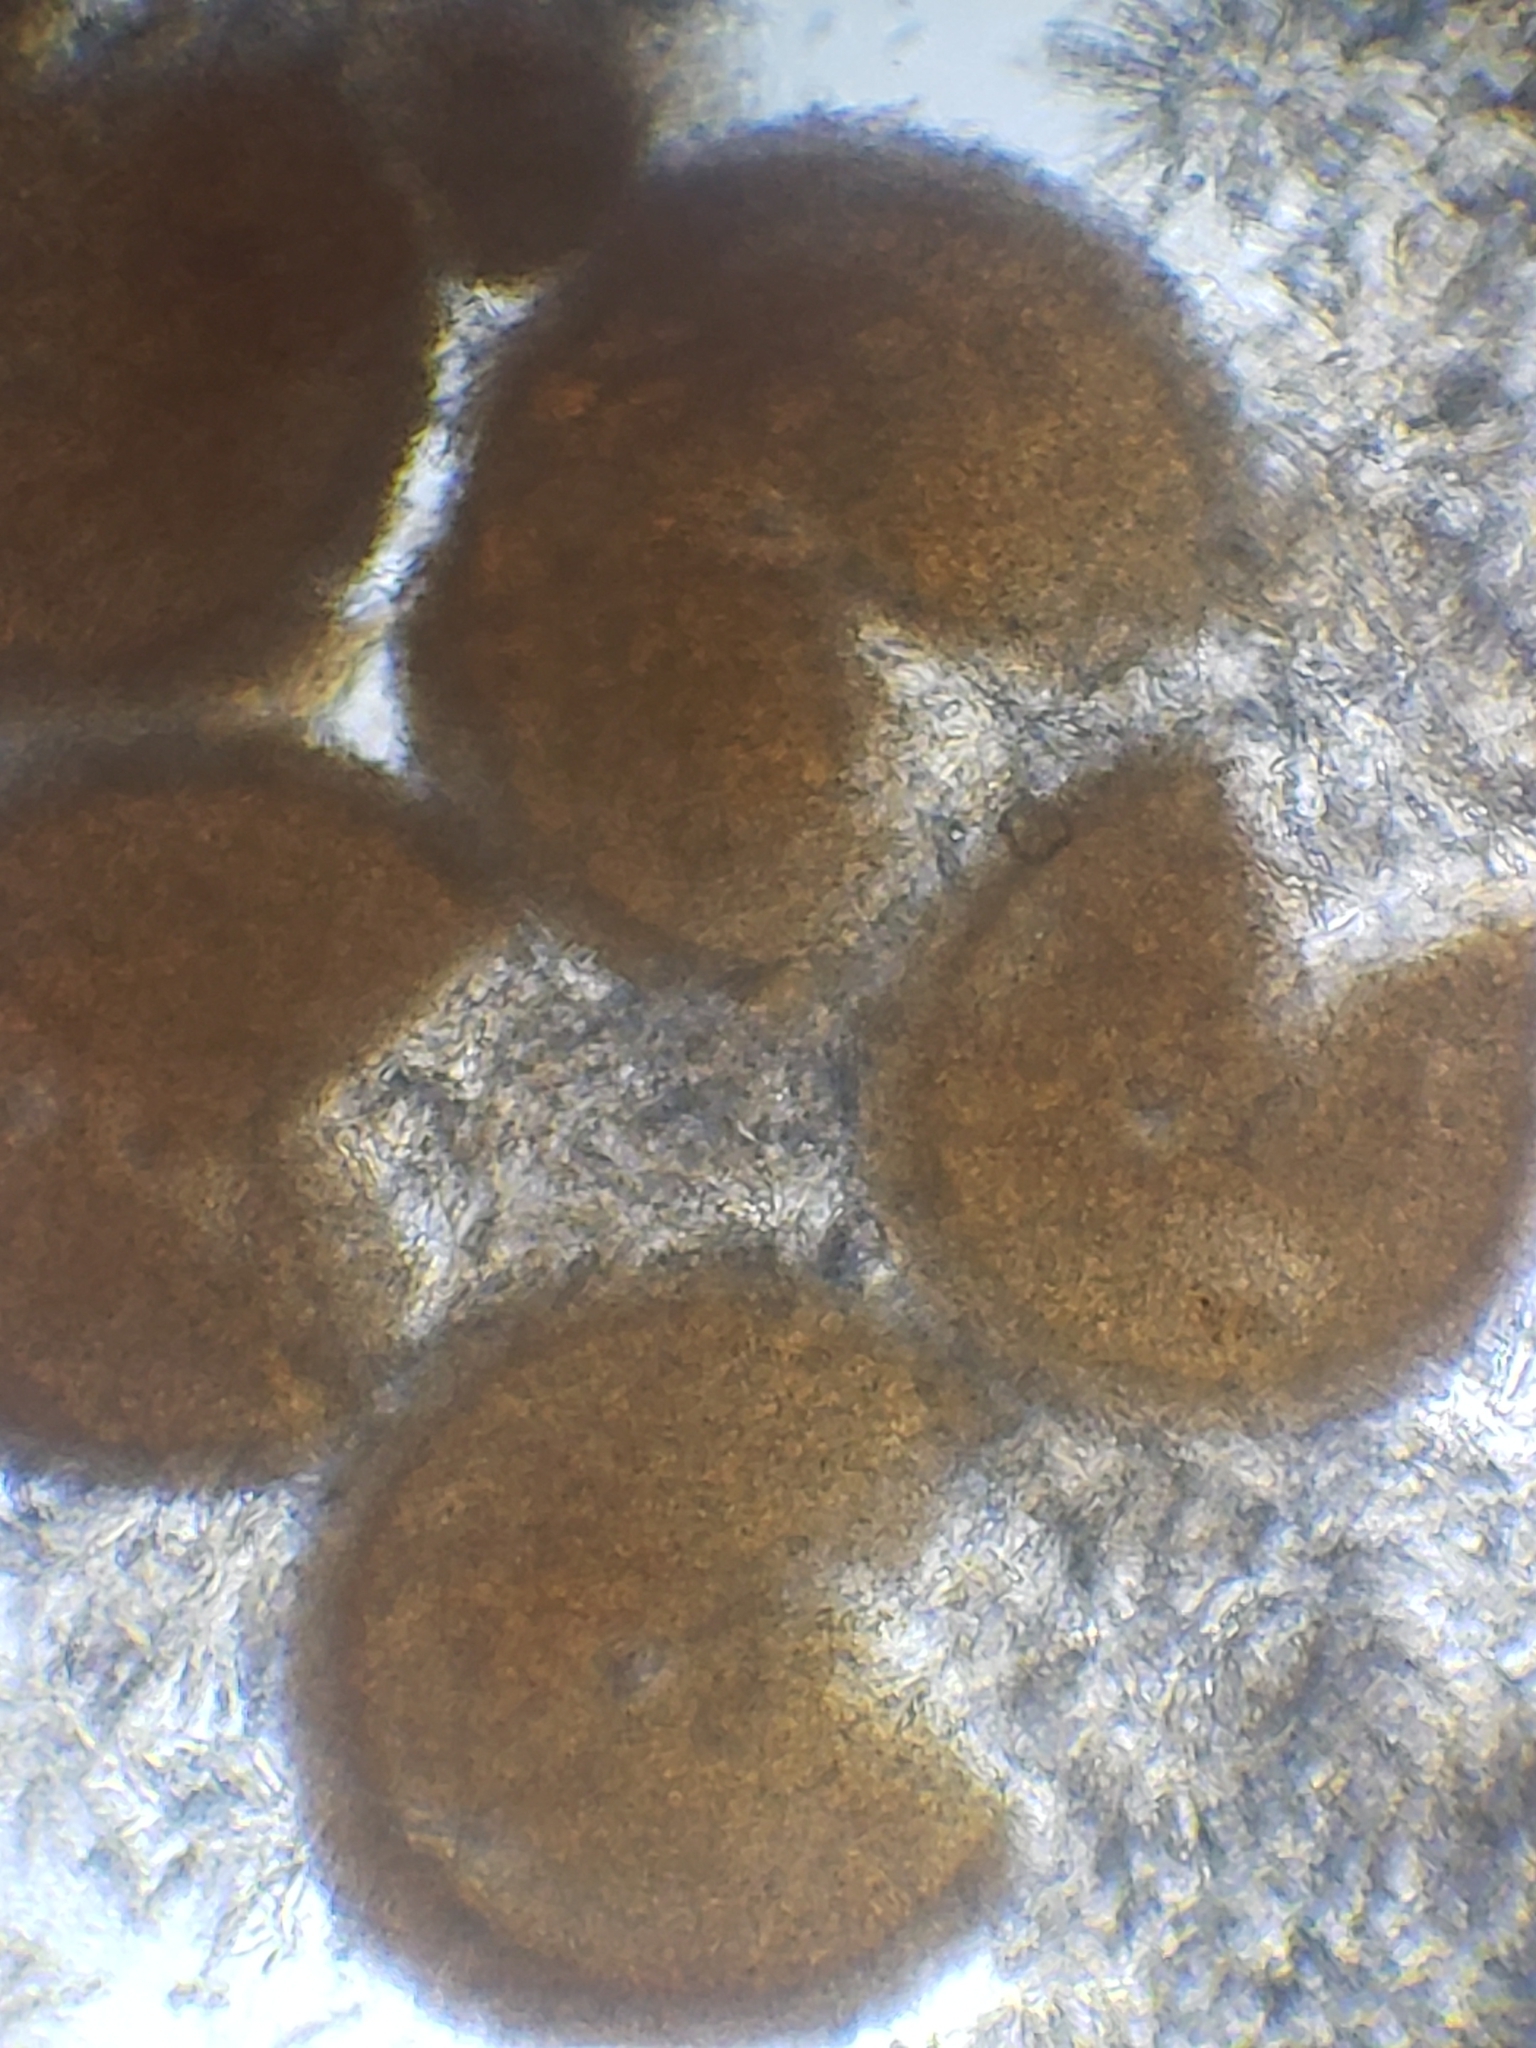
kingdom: Fungi
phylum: Ascomycota
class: Sordariomycetes
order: Hypocreales
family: Nectriaceae
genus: Hydropisphaera
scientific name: Hydropisphaera peziza
